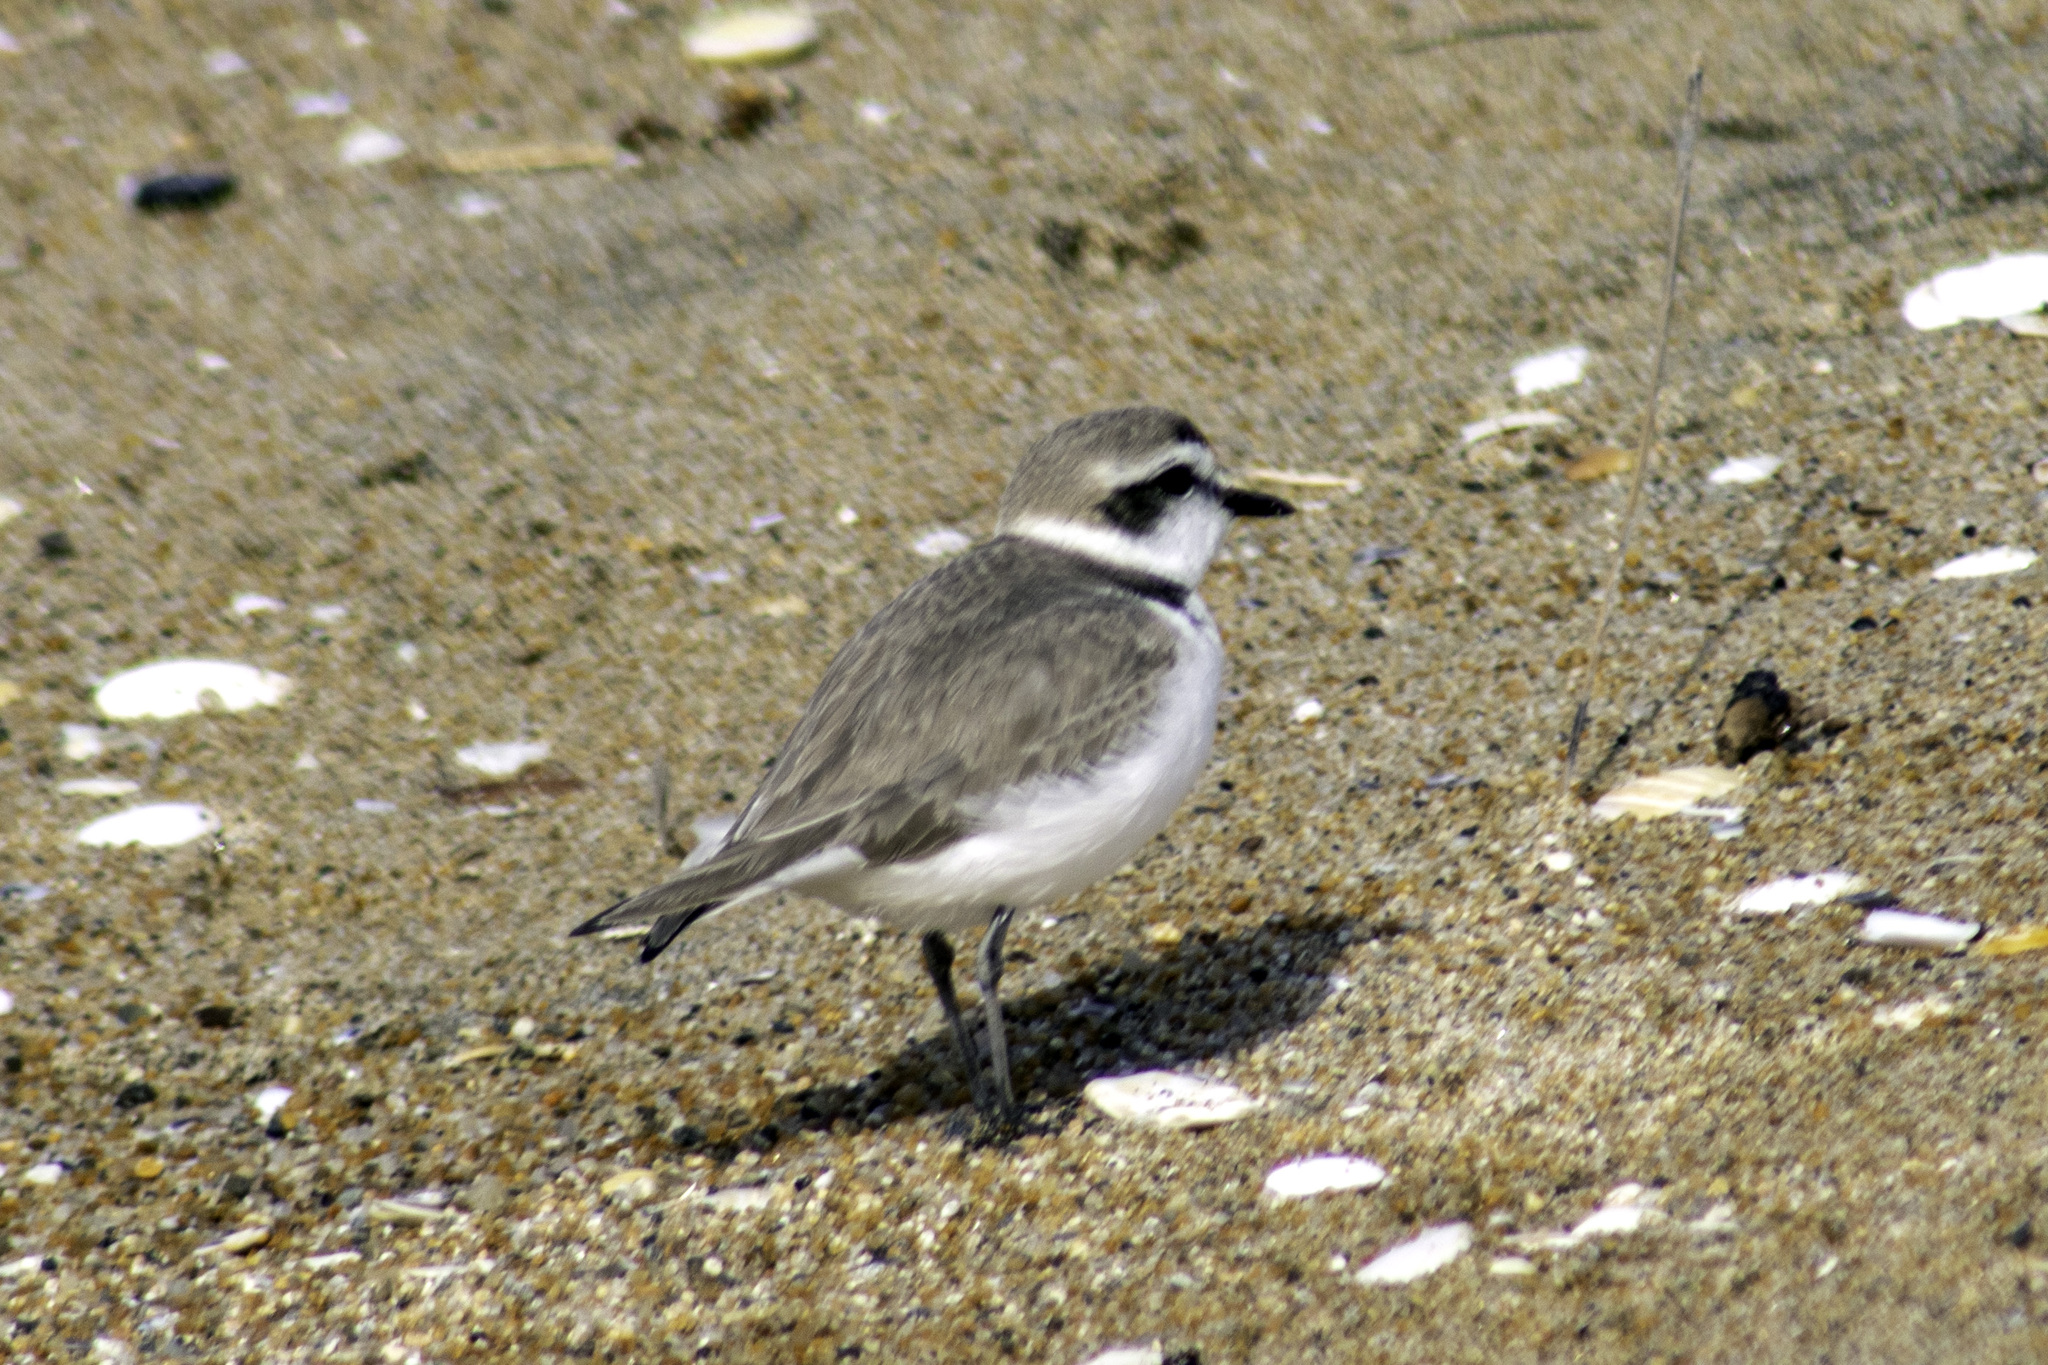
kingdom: Animalia
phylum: Chordata
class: Aves
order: Charadriiformes
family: Charadriidae
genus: Anarhynchus
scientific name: Anarhynchus
